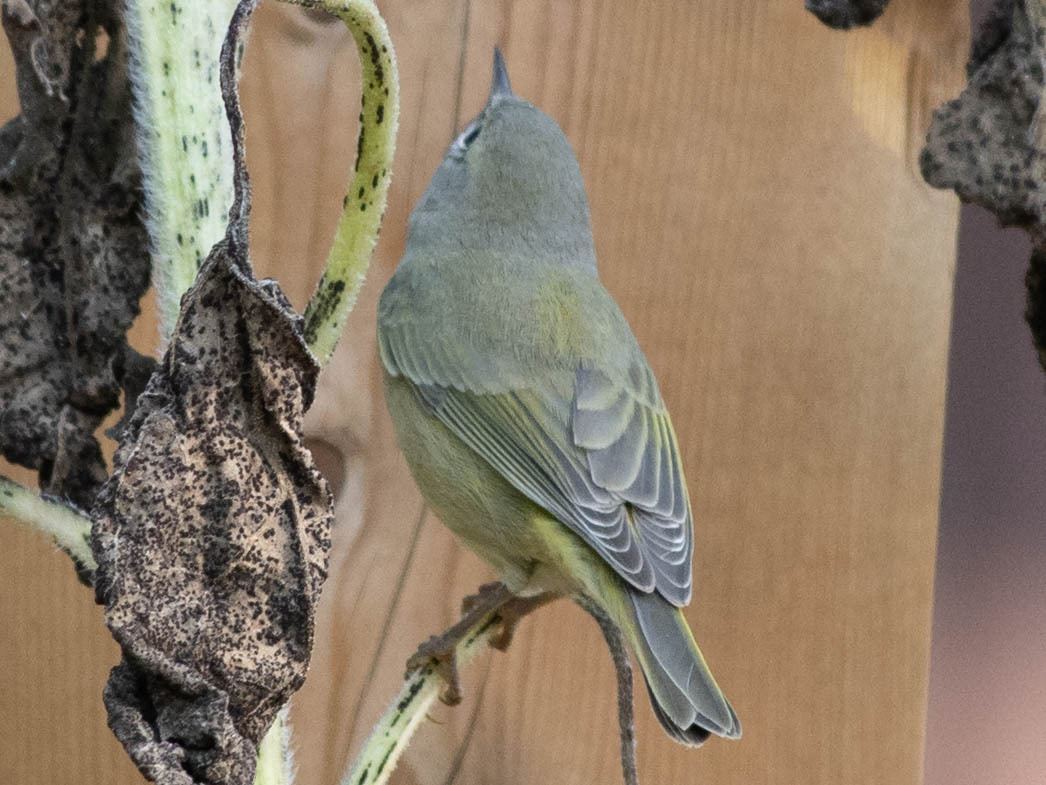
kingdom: Animalia
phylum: Chordata
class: Aves
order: Passeriformes
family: Parulidae
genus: Leiothlypis
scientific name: Leiothlypis celata
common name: Orange-crowned warbler
